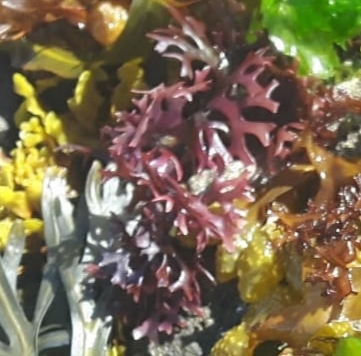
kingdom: Plantae
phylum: Rhodophyta
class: Florideophyceae
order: Gigartinales
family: Gigartinaceae
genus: Chondrus
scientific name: Chondrus crispus
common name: Carrageen
